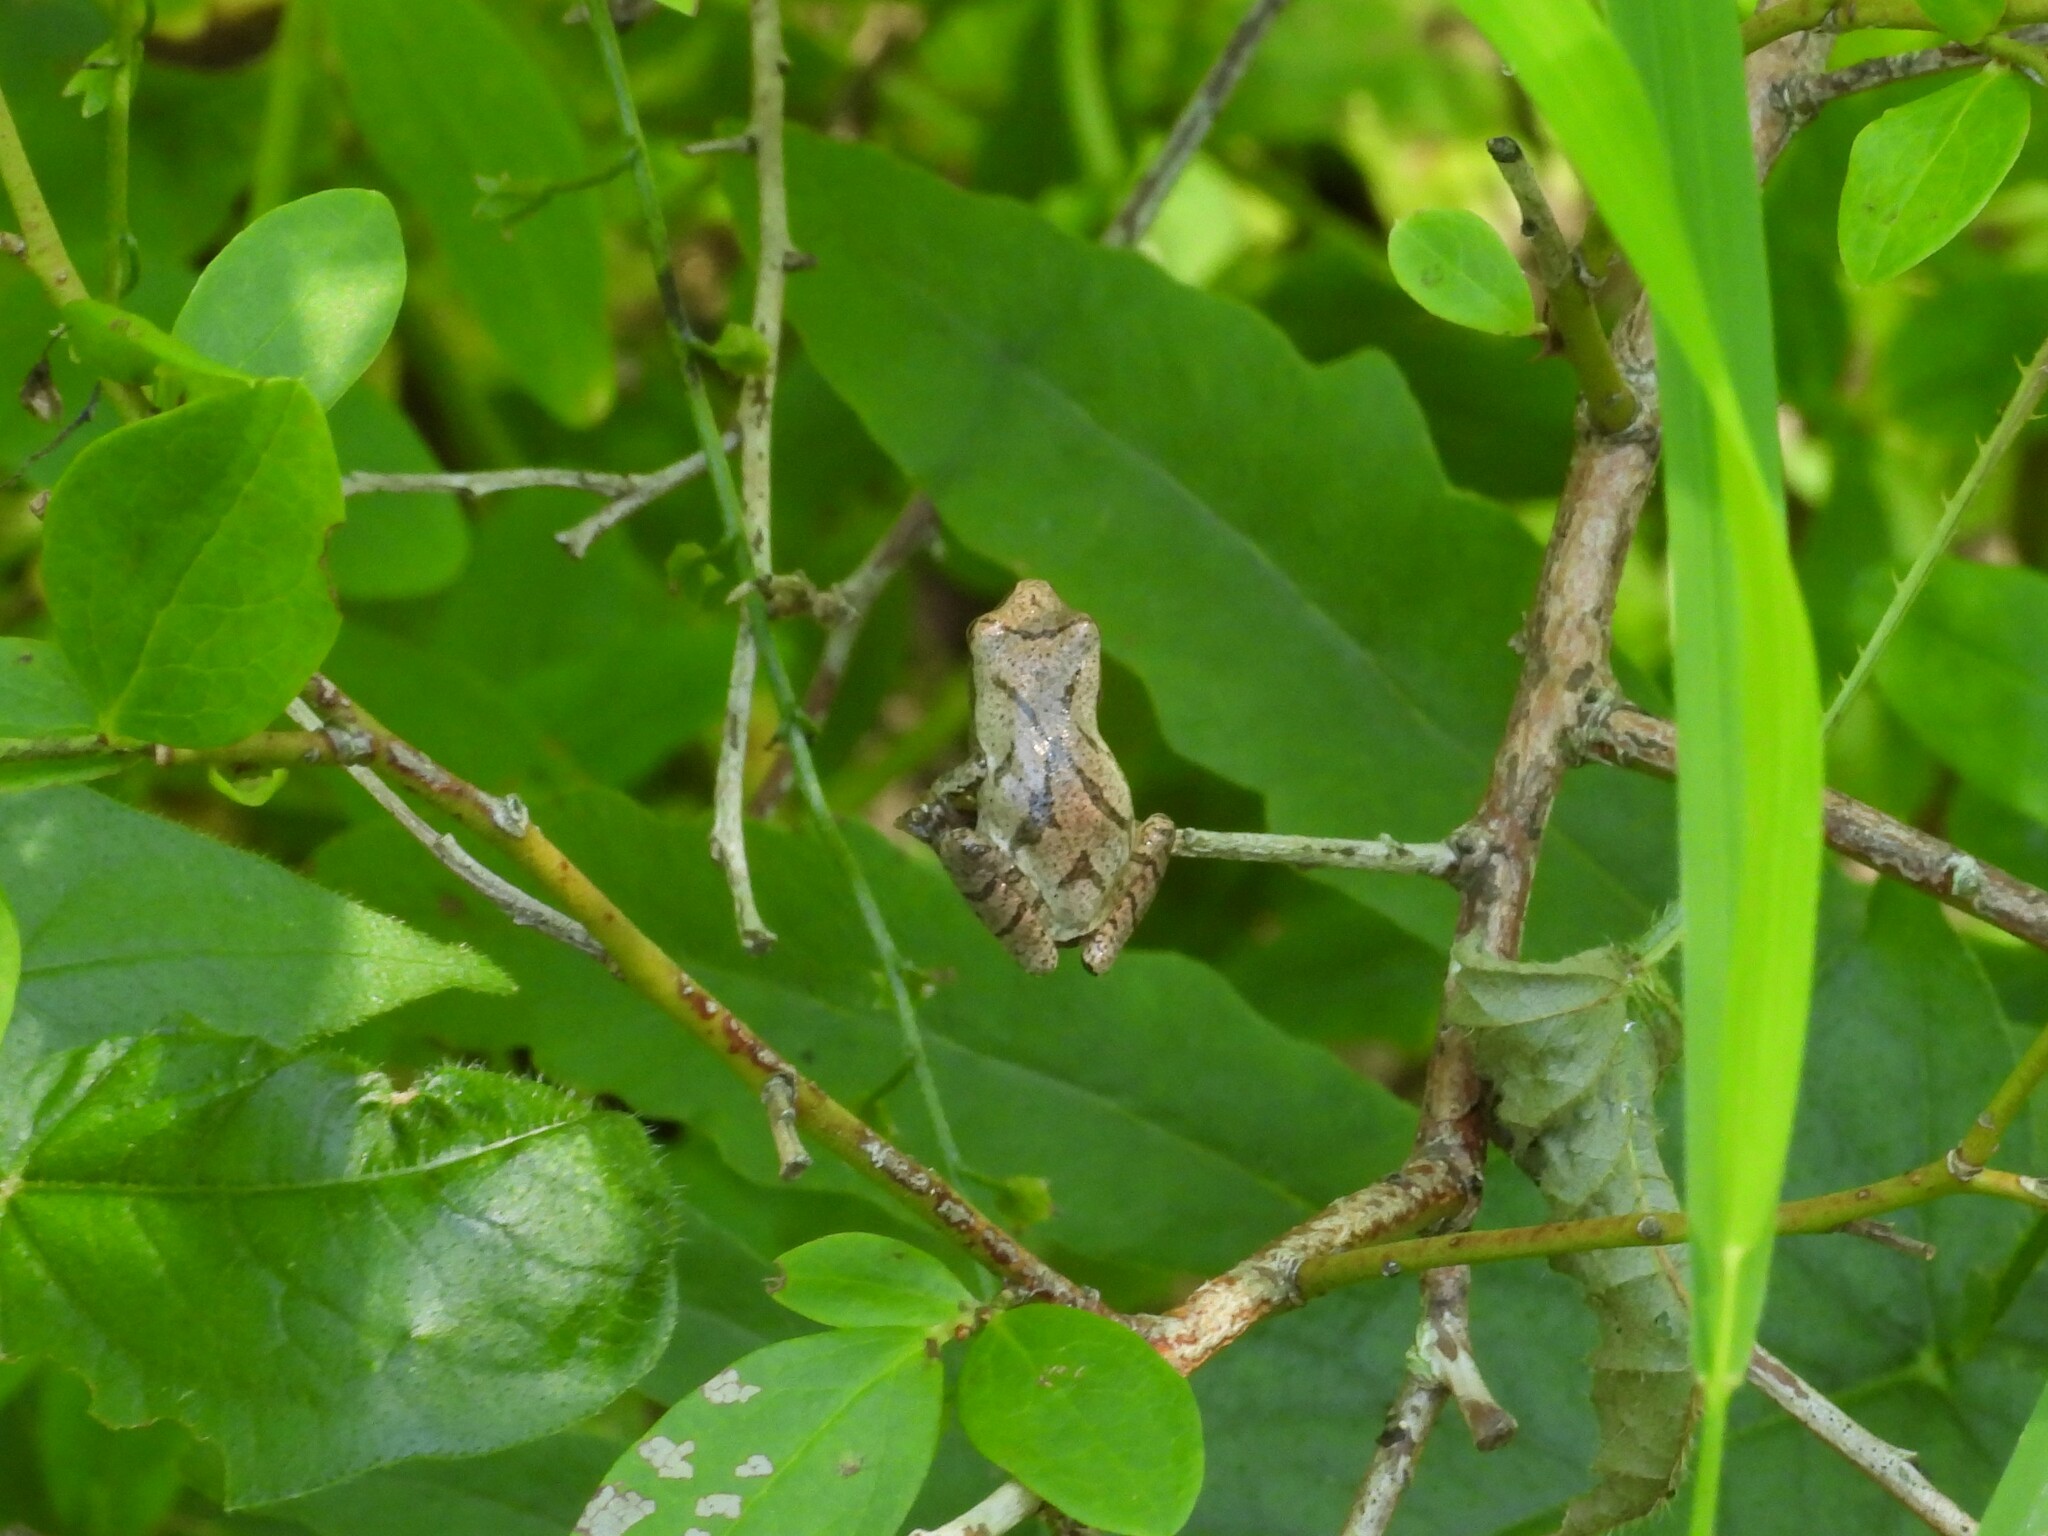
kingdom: Animalia
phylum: Chordata
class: Amphibia
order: Anura
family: Hylidae
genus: Pseudacris
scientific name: Pseudacris crucifer
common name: Spring peeper
